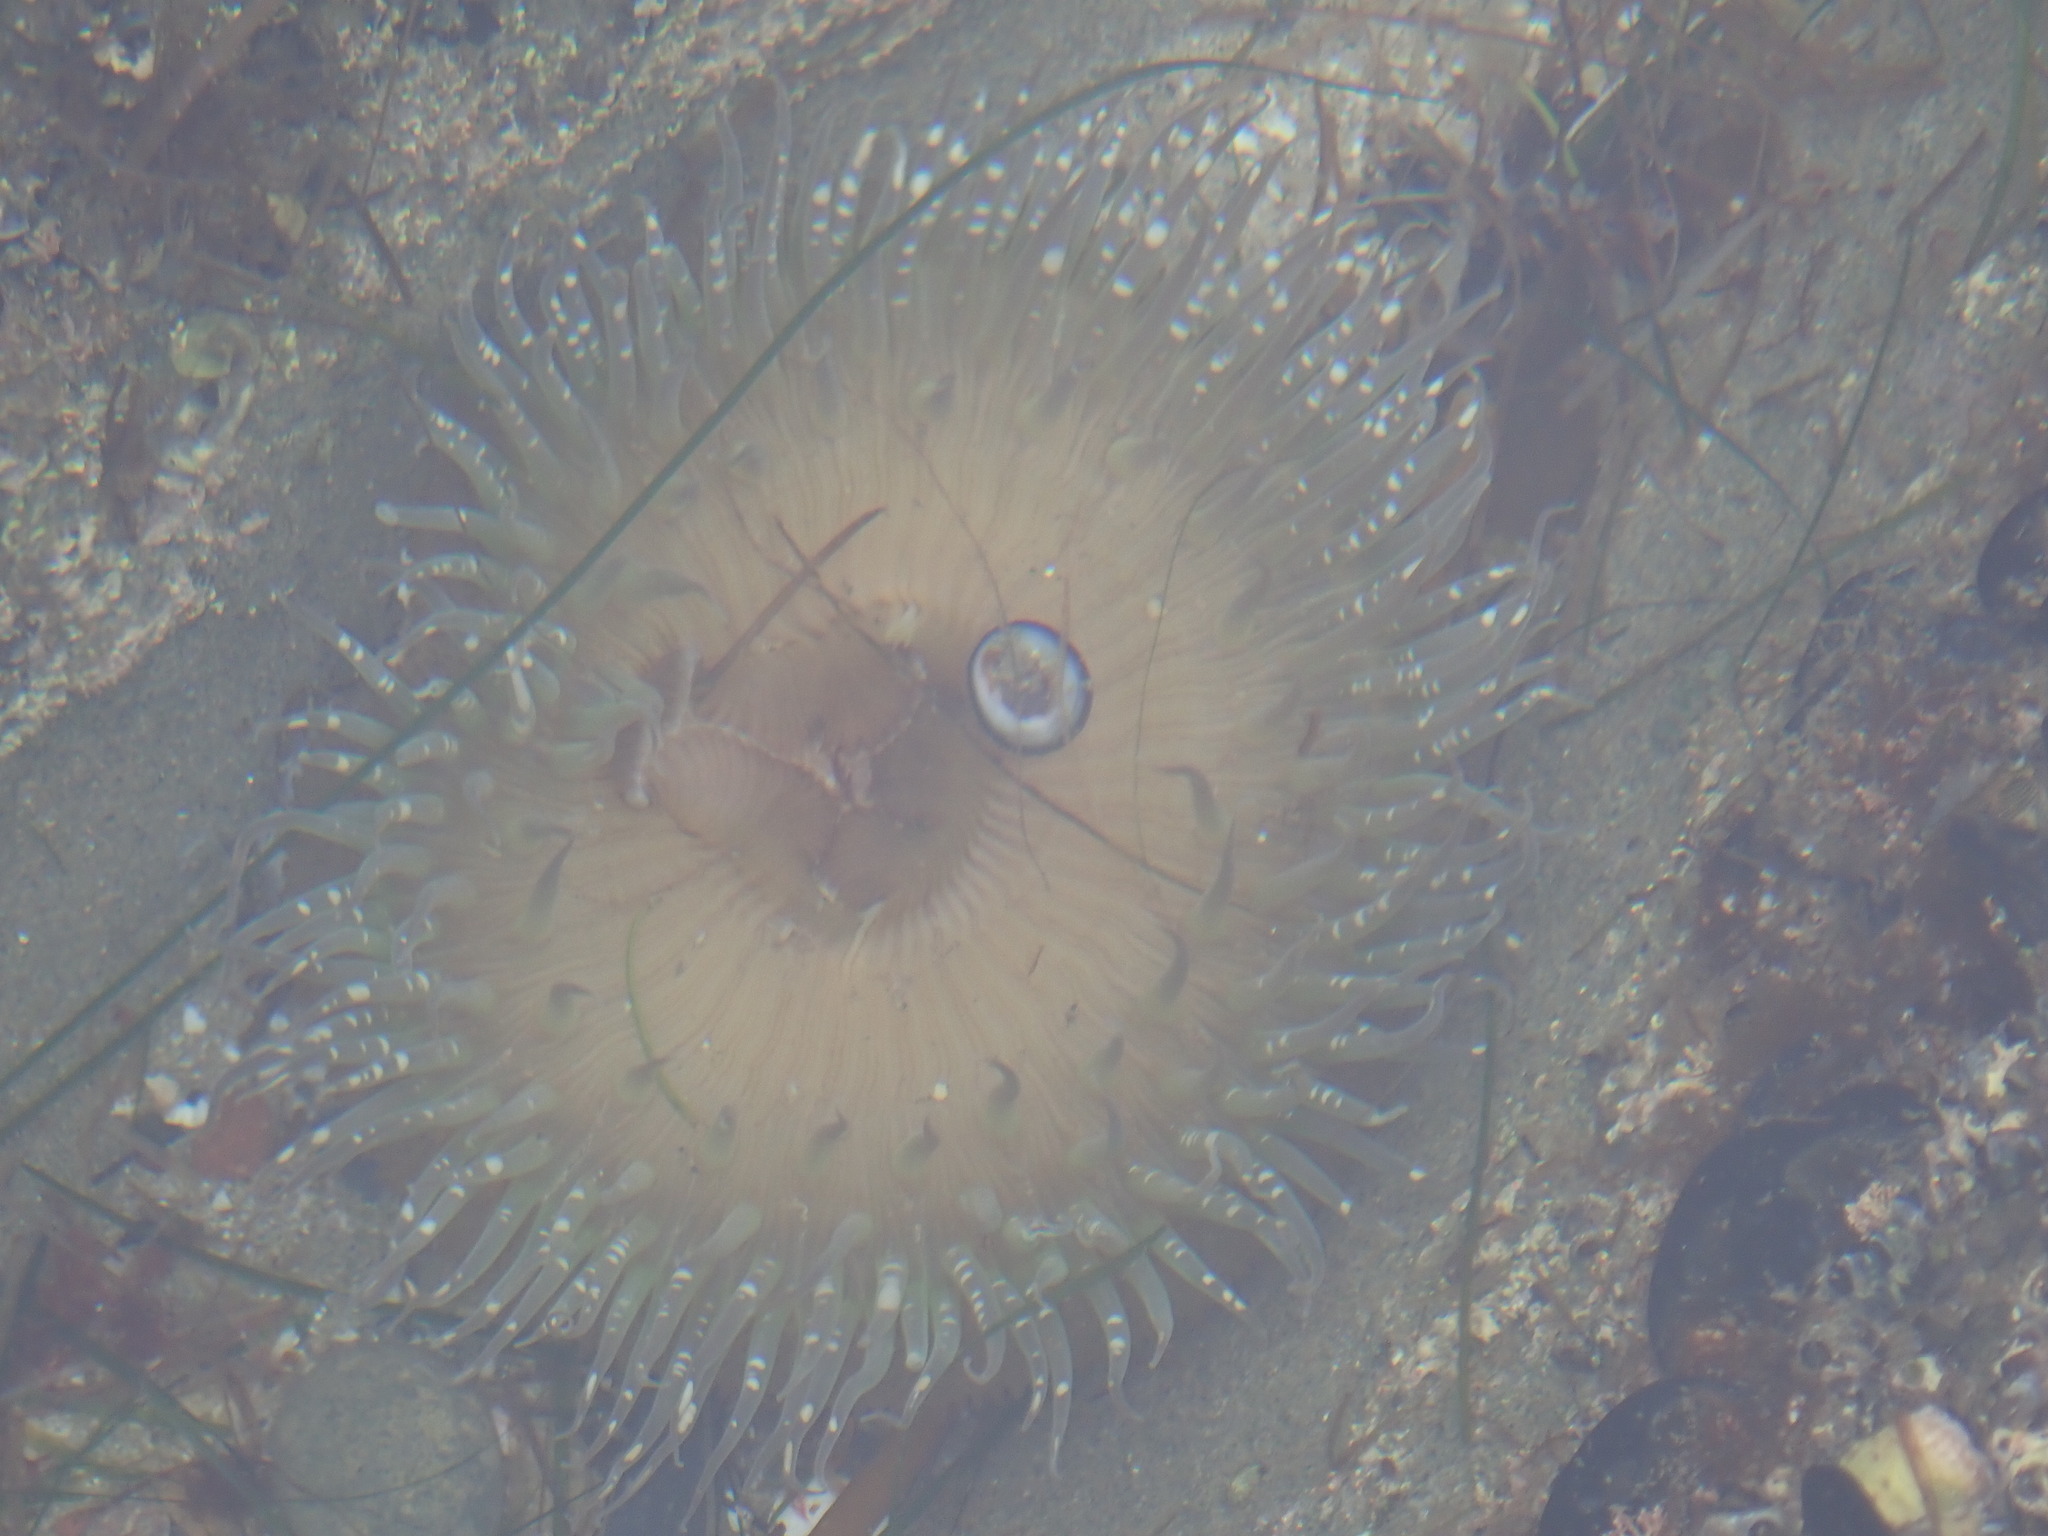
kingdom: Animalia
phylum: Cnidaria
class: Anthozoa
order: Actiniaria
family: Actiniidae
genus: Anthopleura
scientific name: Anthopleura sola
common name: Sun anemone
